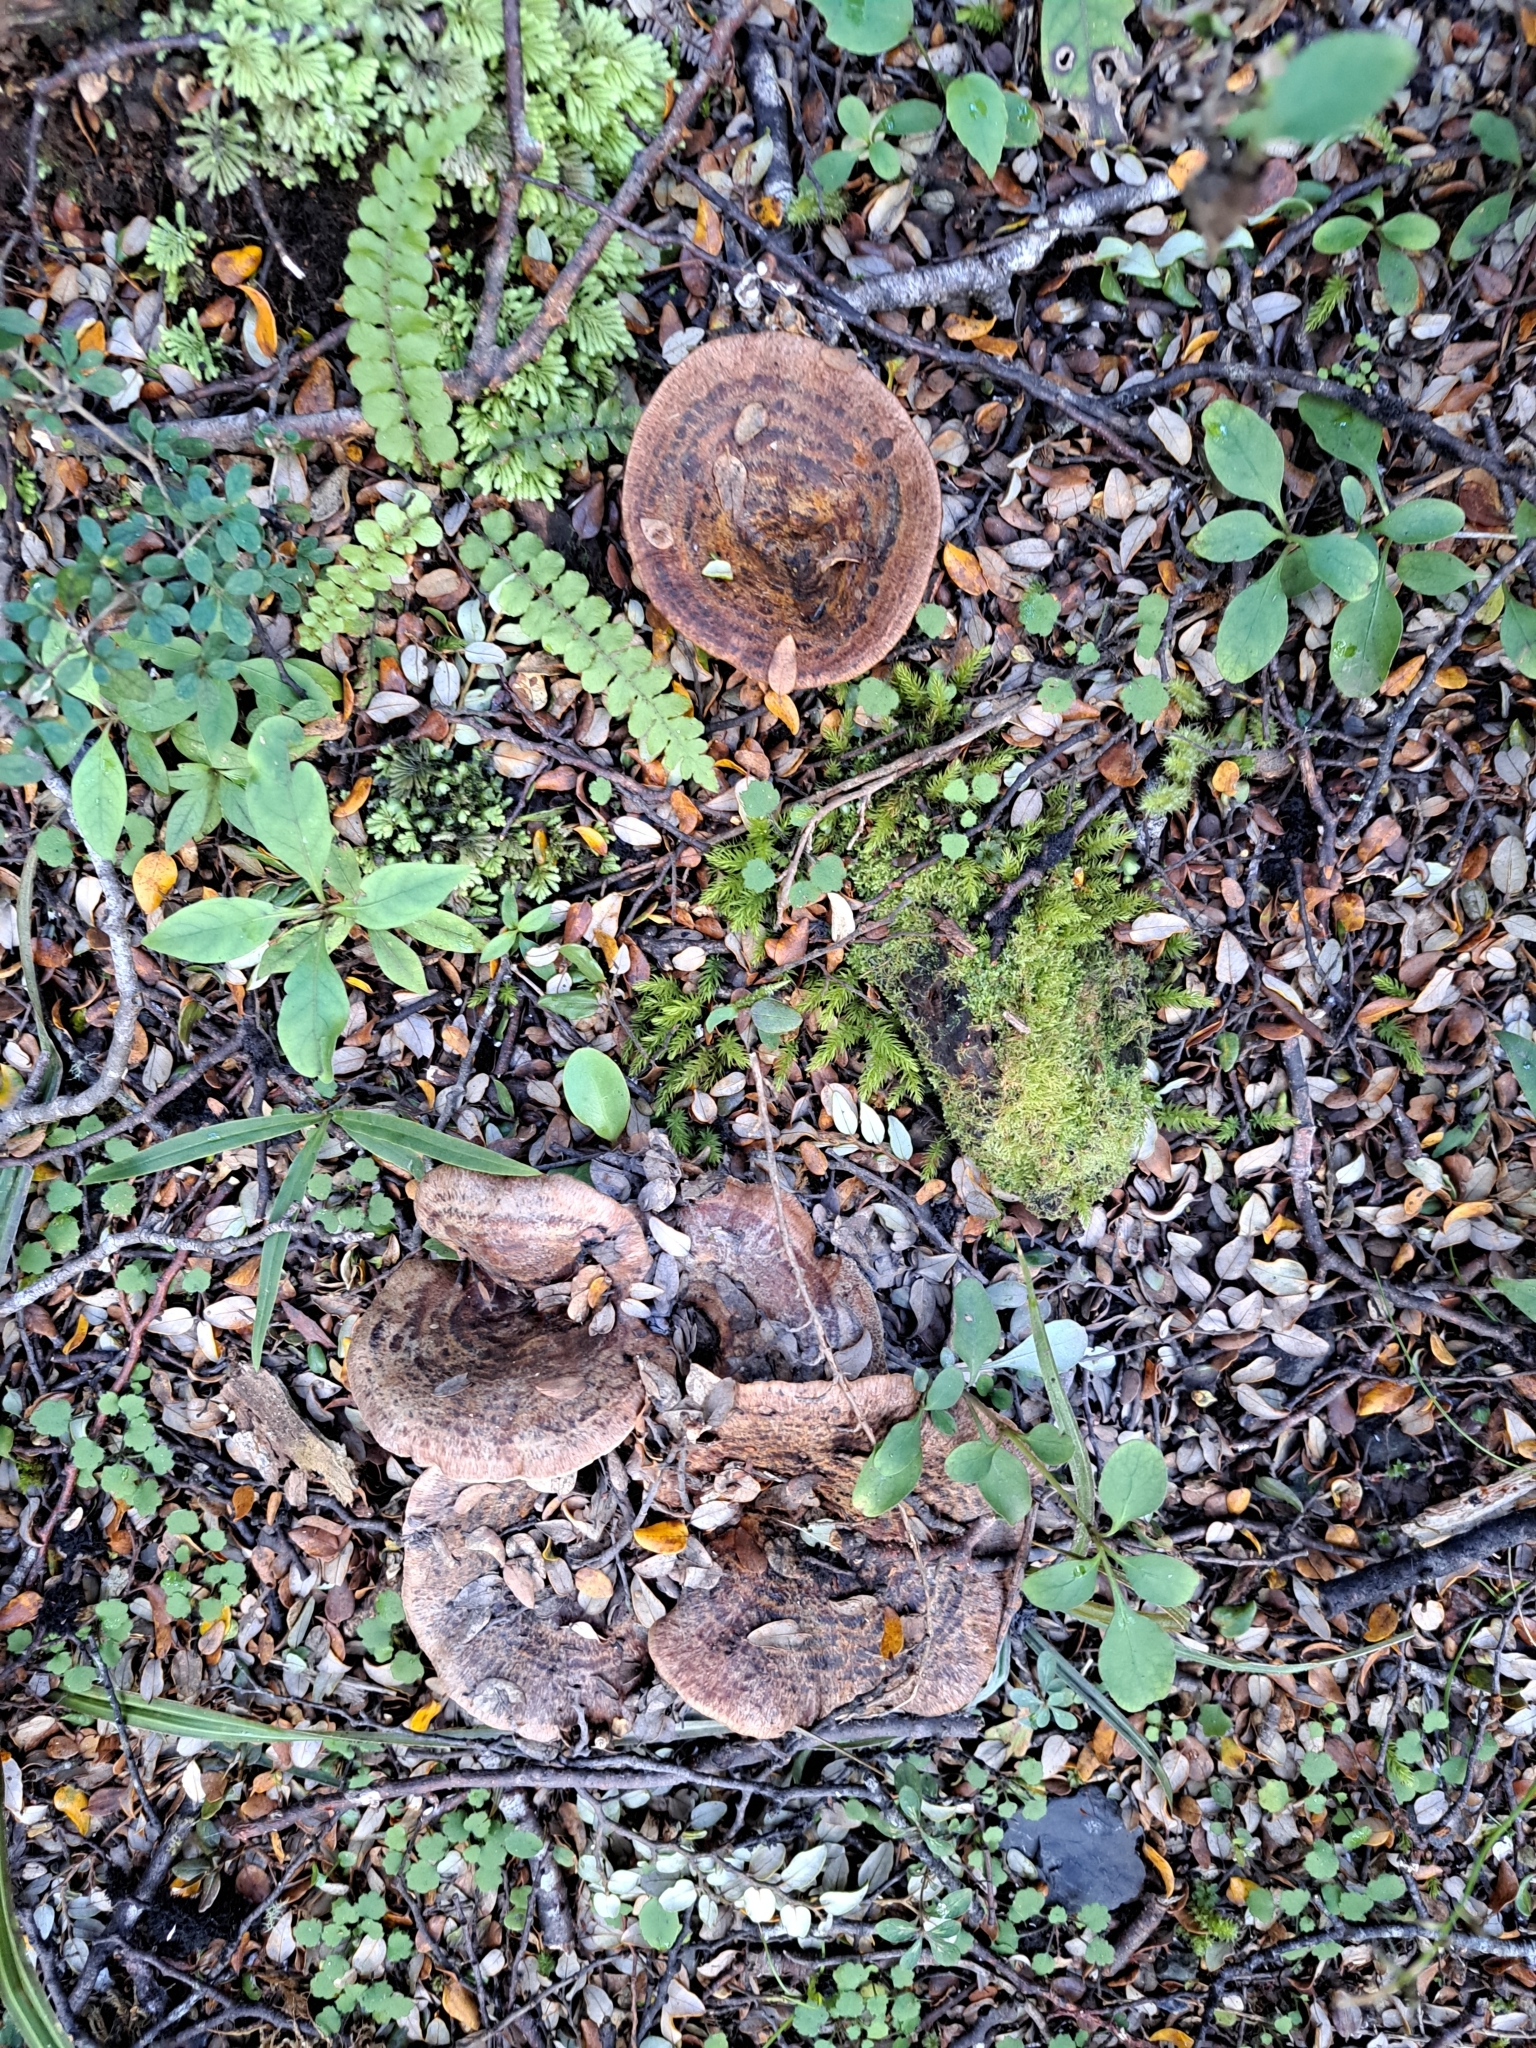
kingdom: Fungi
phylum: Basidiomycota
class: Agaricomycetes
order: Russulales
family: Russulaceae
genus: Lactarius
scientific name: Lactarius tawai
